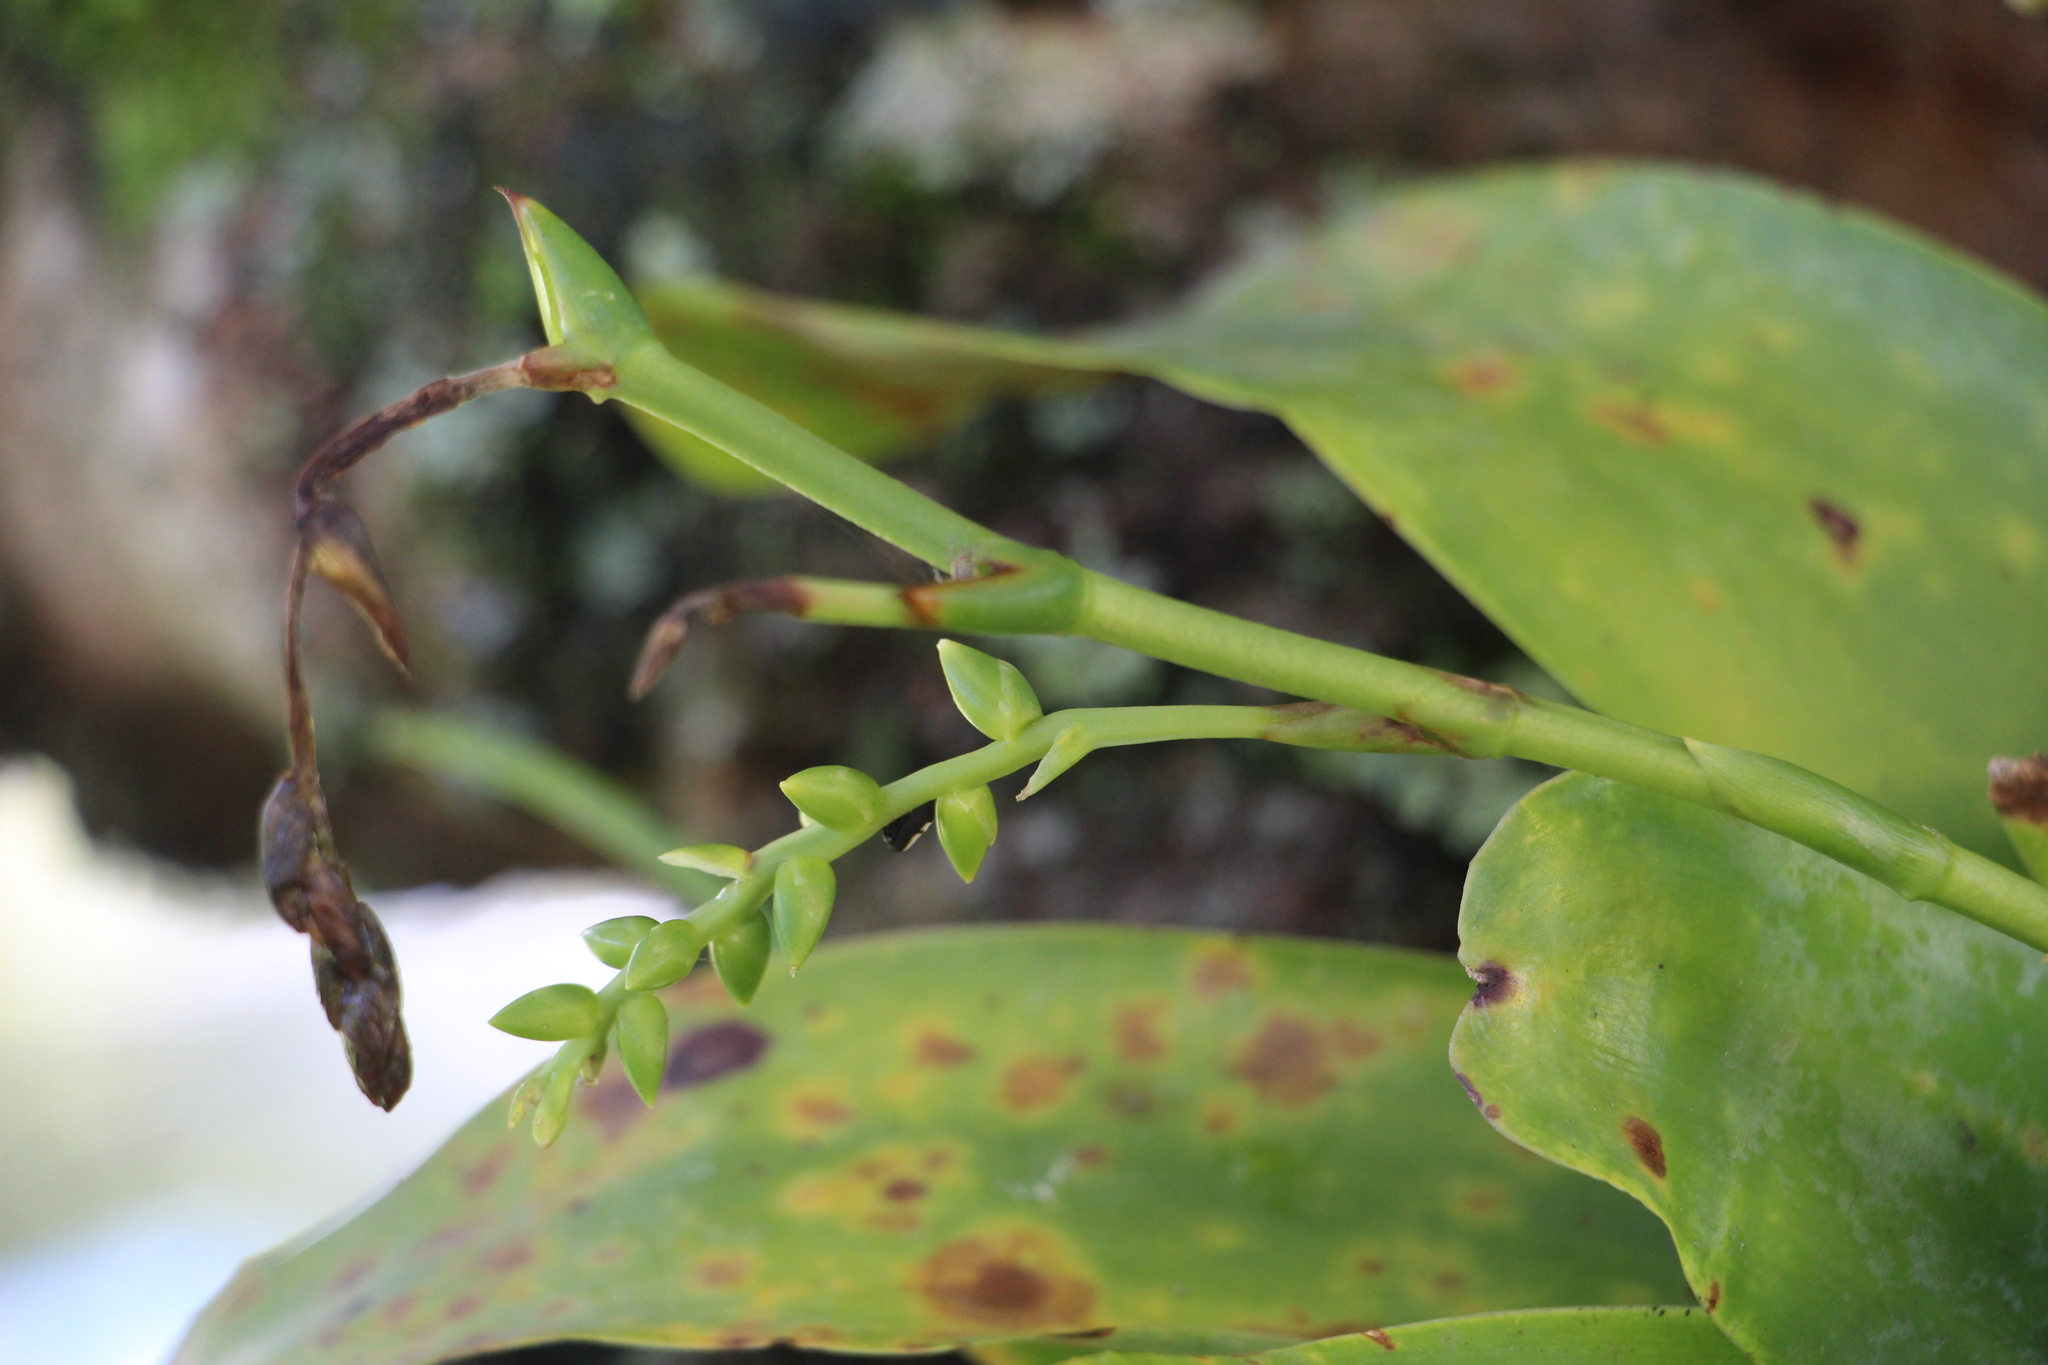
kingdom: Plantae
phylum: Tracheophyta
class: Liliopsida
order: Poales
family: Bromeliaceae
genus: Catopsis
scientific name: Catopsis sessiliflora
